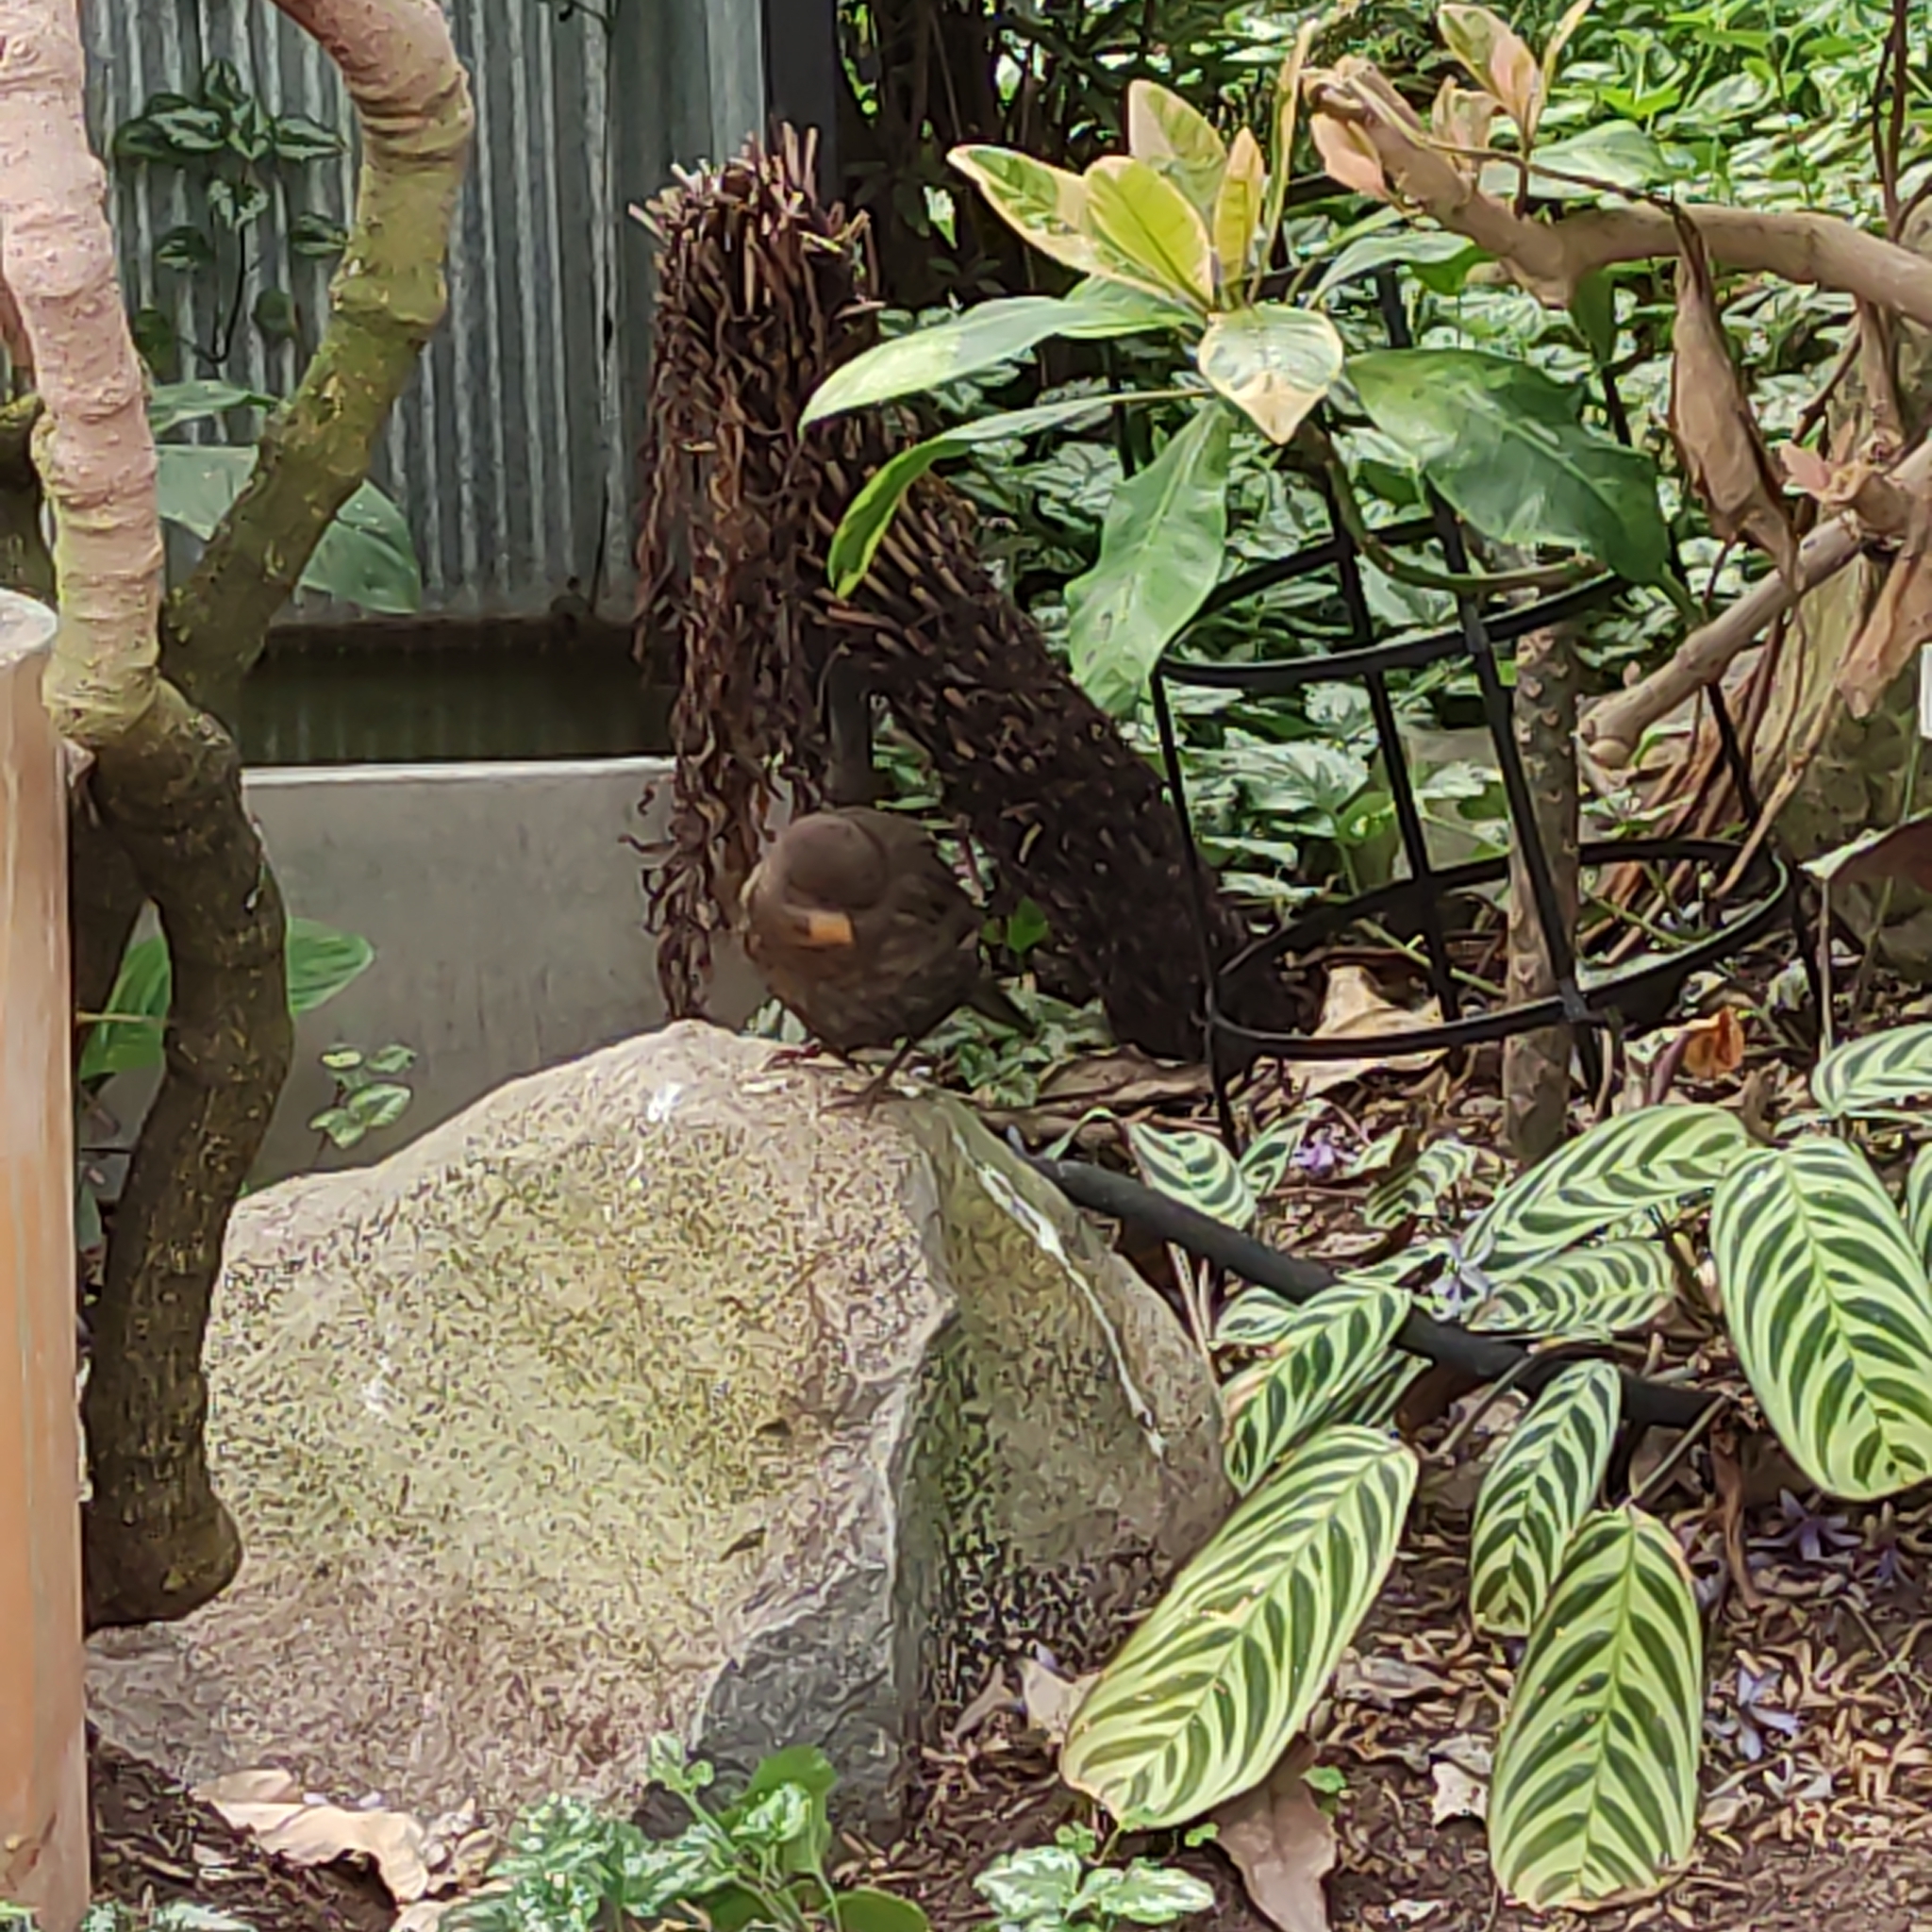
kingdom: Animalia
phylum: Chordata
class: Aves
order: Passeriformes
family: Turdidae
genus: Turdus
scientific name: Turdus merula
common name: Common blackbird
